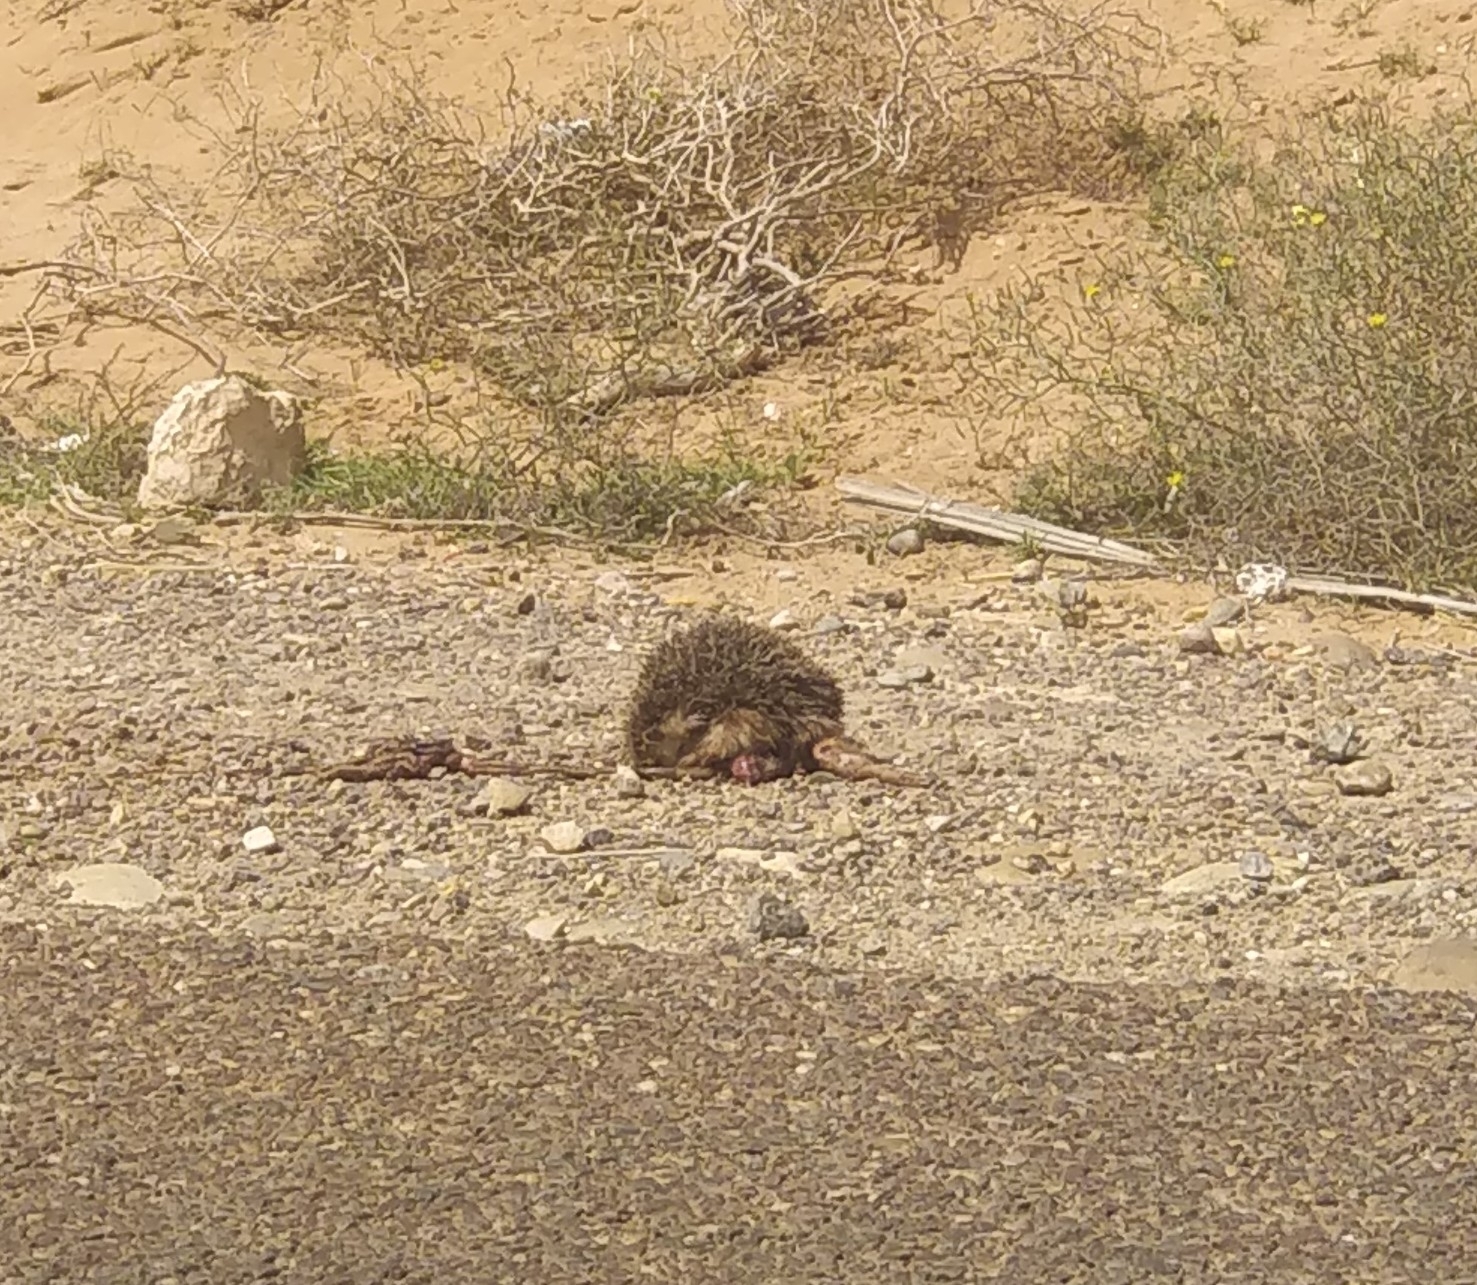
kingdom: Animalia
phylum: Chordata
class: Mammalia
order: Erinaceomorpha
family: Erinaceidae
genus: Atelerix
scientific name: Atelerix algirus
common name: North african hedgehog
